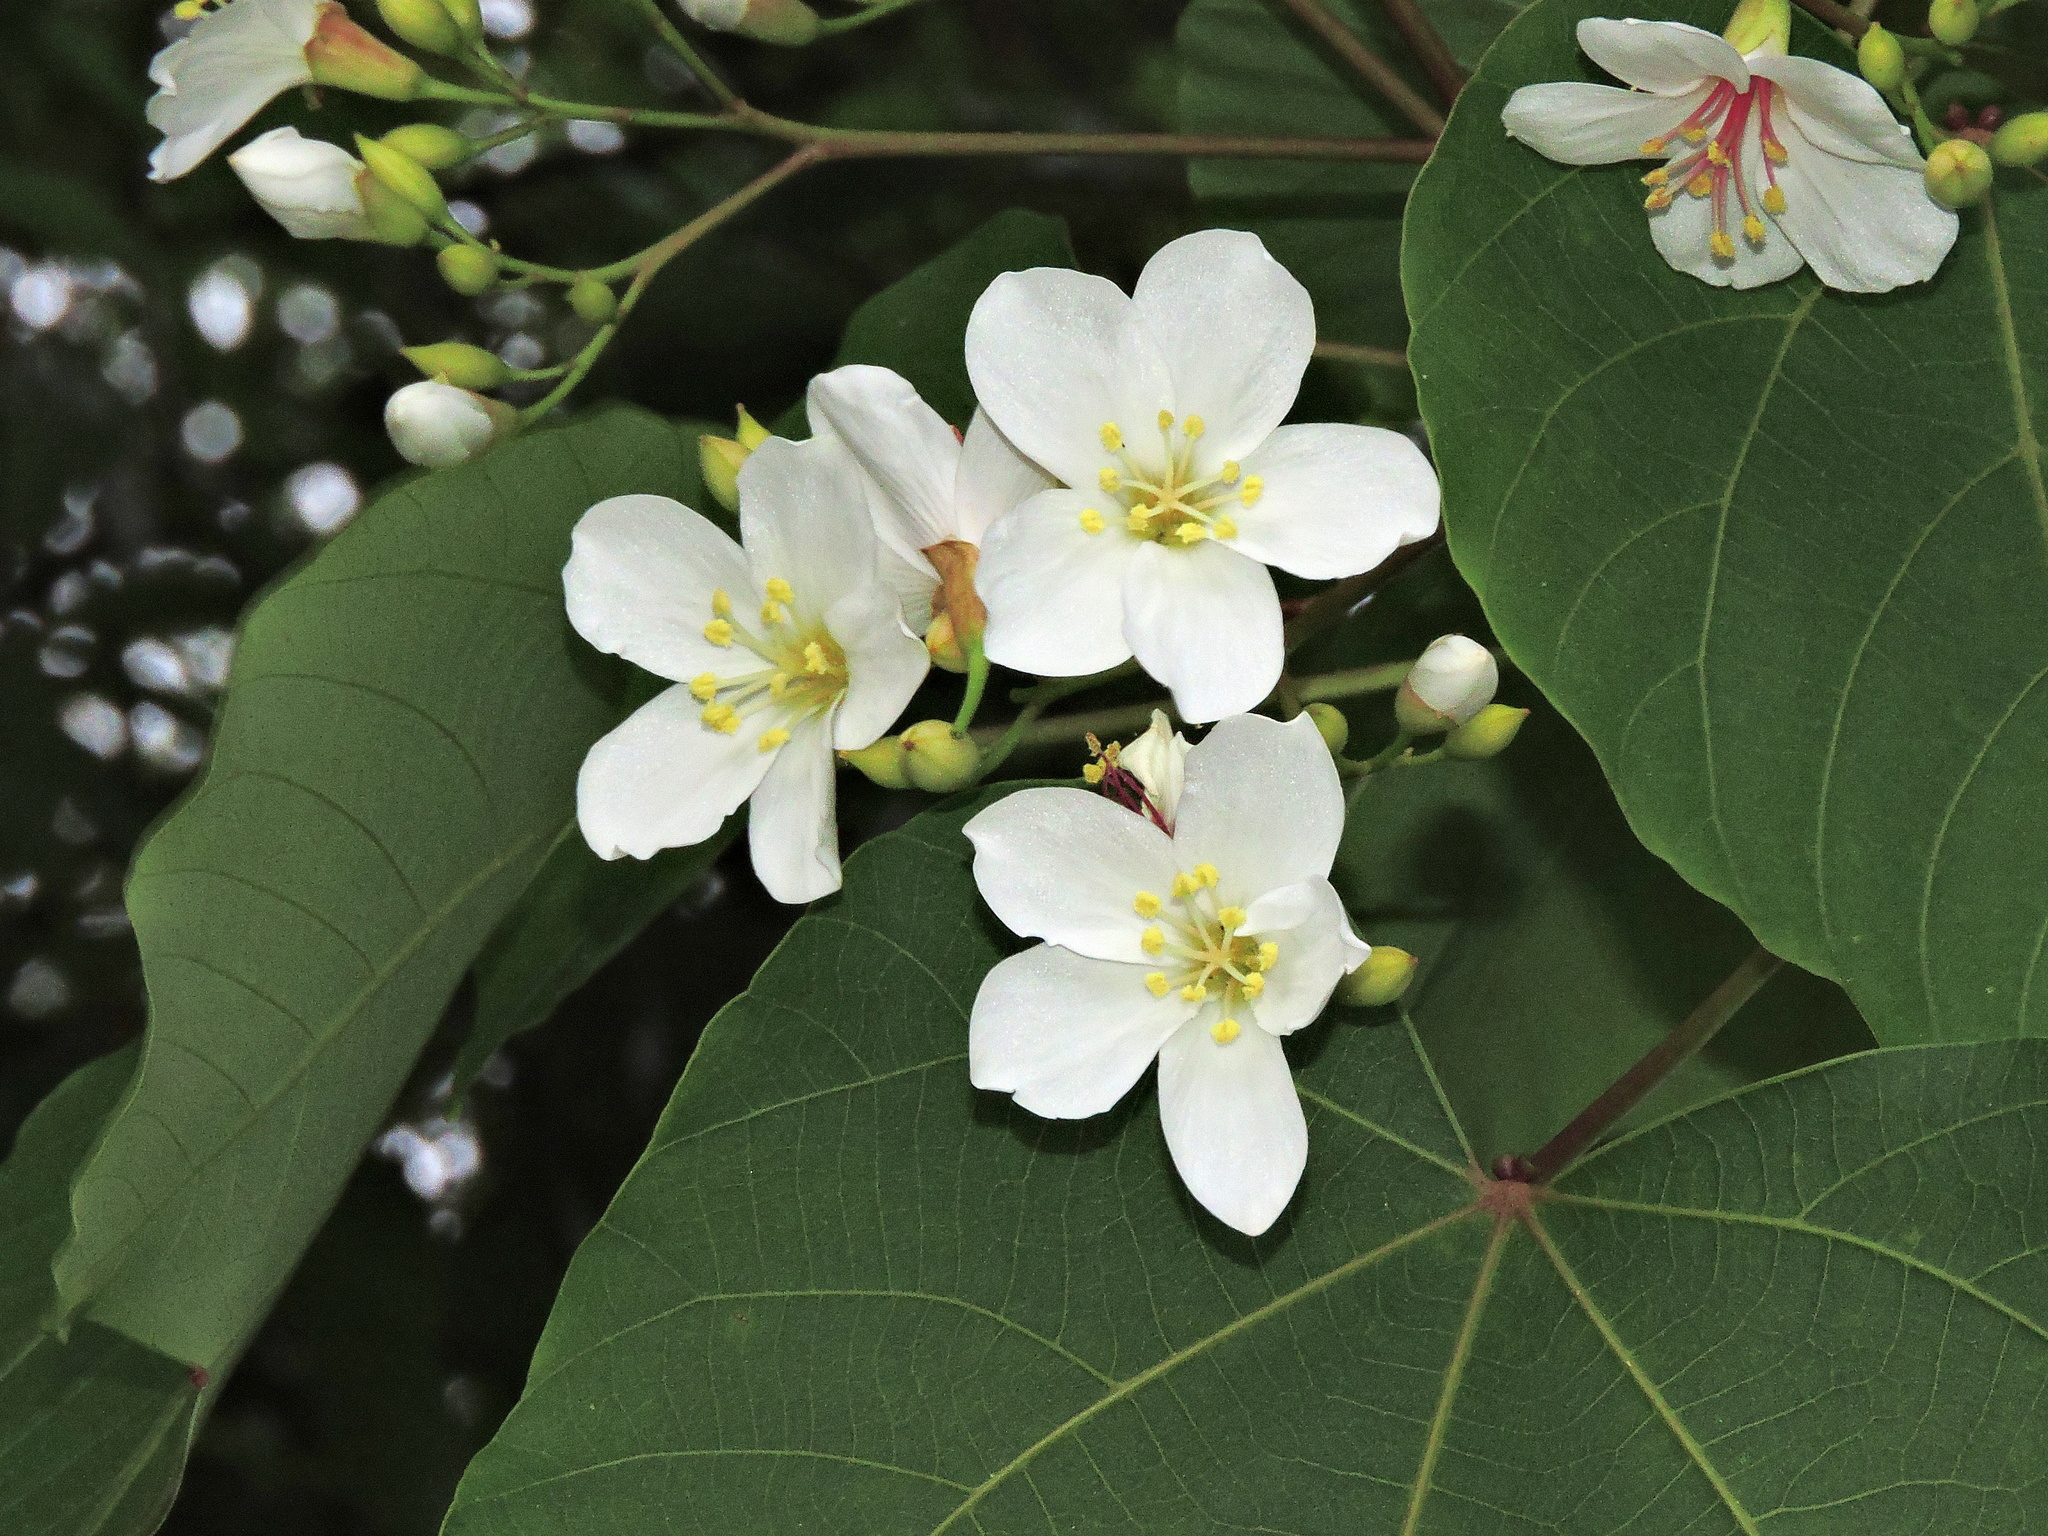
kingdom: Plantae
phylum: Tracheophyta
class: Magnoliopsida
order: Malpighiales
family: Euphorbiaceae
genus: Vernicia
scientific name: Vernicia montana
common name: Mu oil tree
